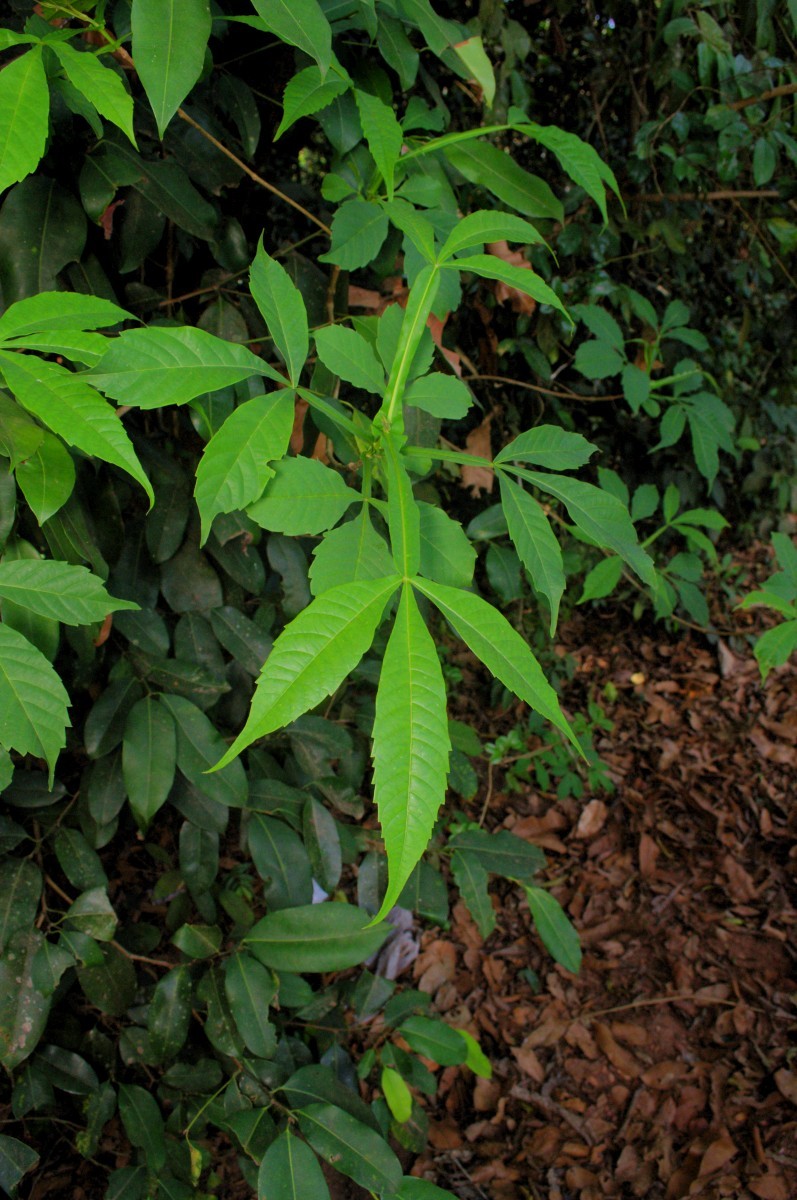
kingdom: Plantae
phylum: Tracheophyta
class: Magnoliopsida
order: Lamiales
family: Lamiaceae
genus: Vitex
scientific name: Vitex altissima
